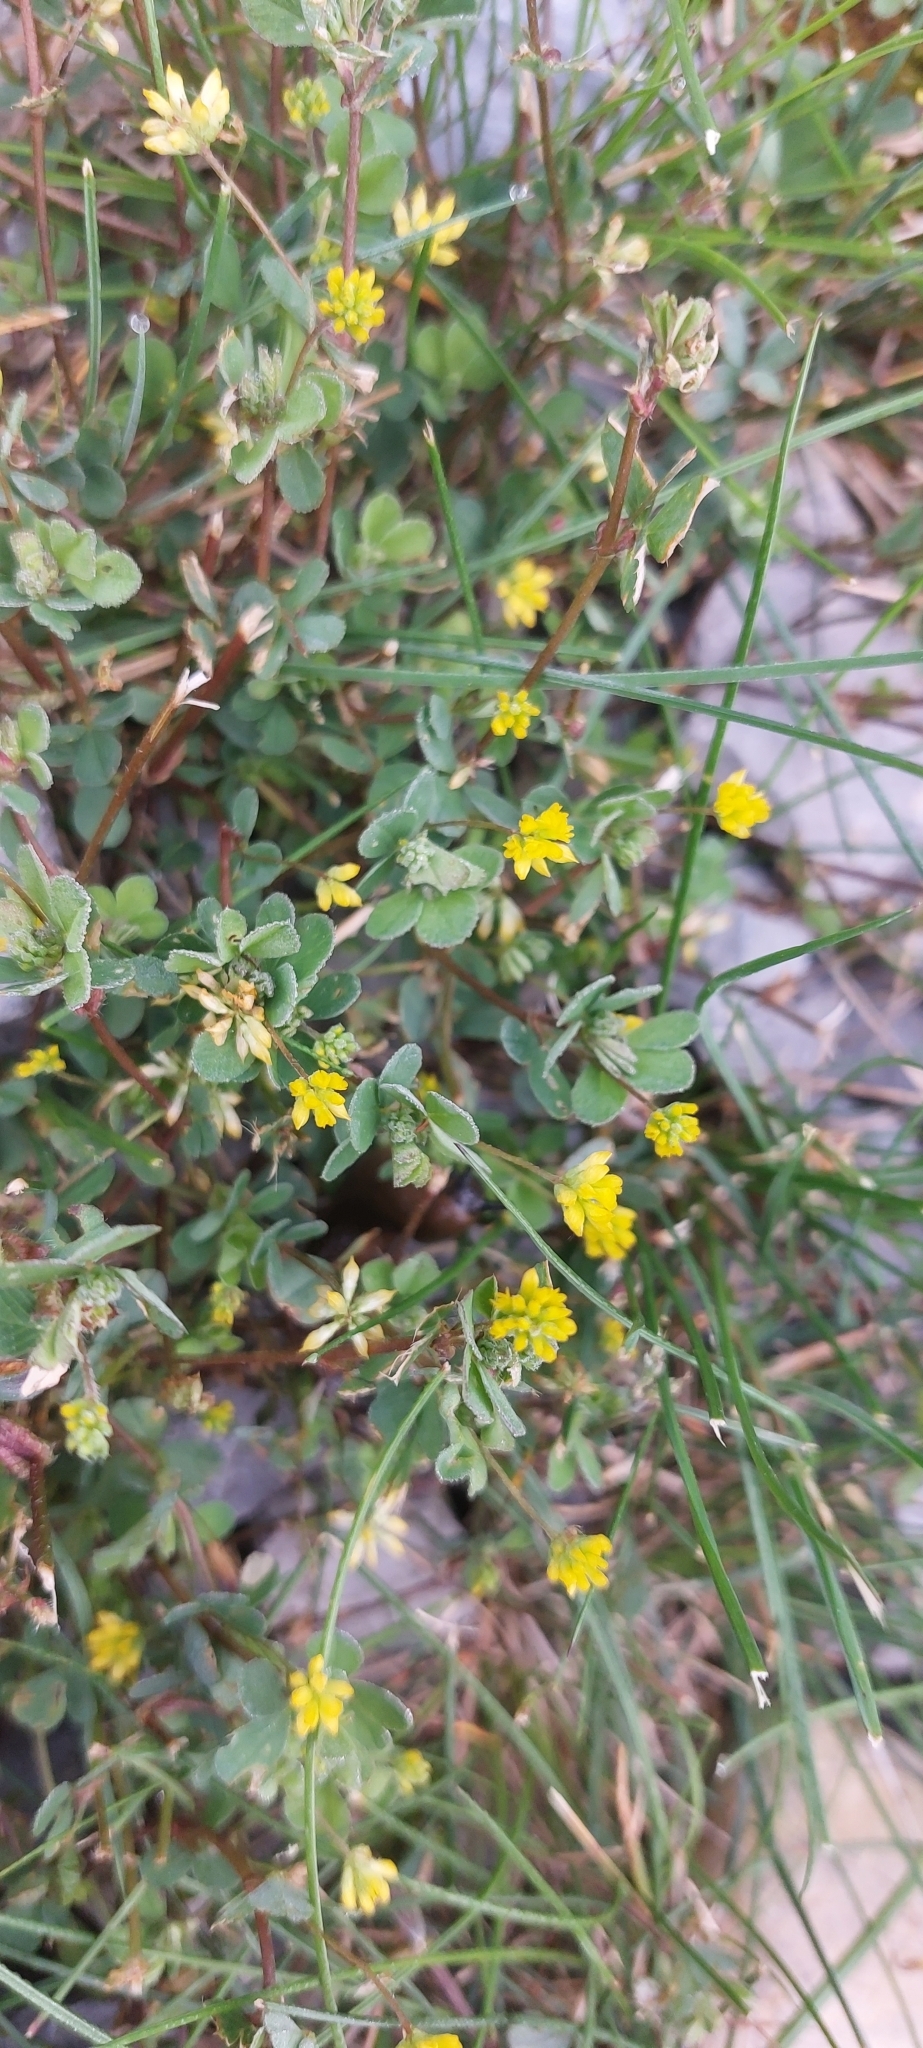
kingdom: Plantae
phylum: Tracheophyta
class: Magnoliopsida
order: Fabales
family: Fabaceae
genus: Trifolium
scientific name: Trifolium dubium
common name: Suckling clover
